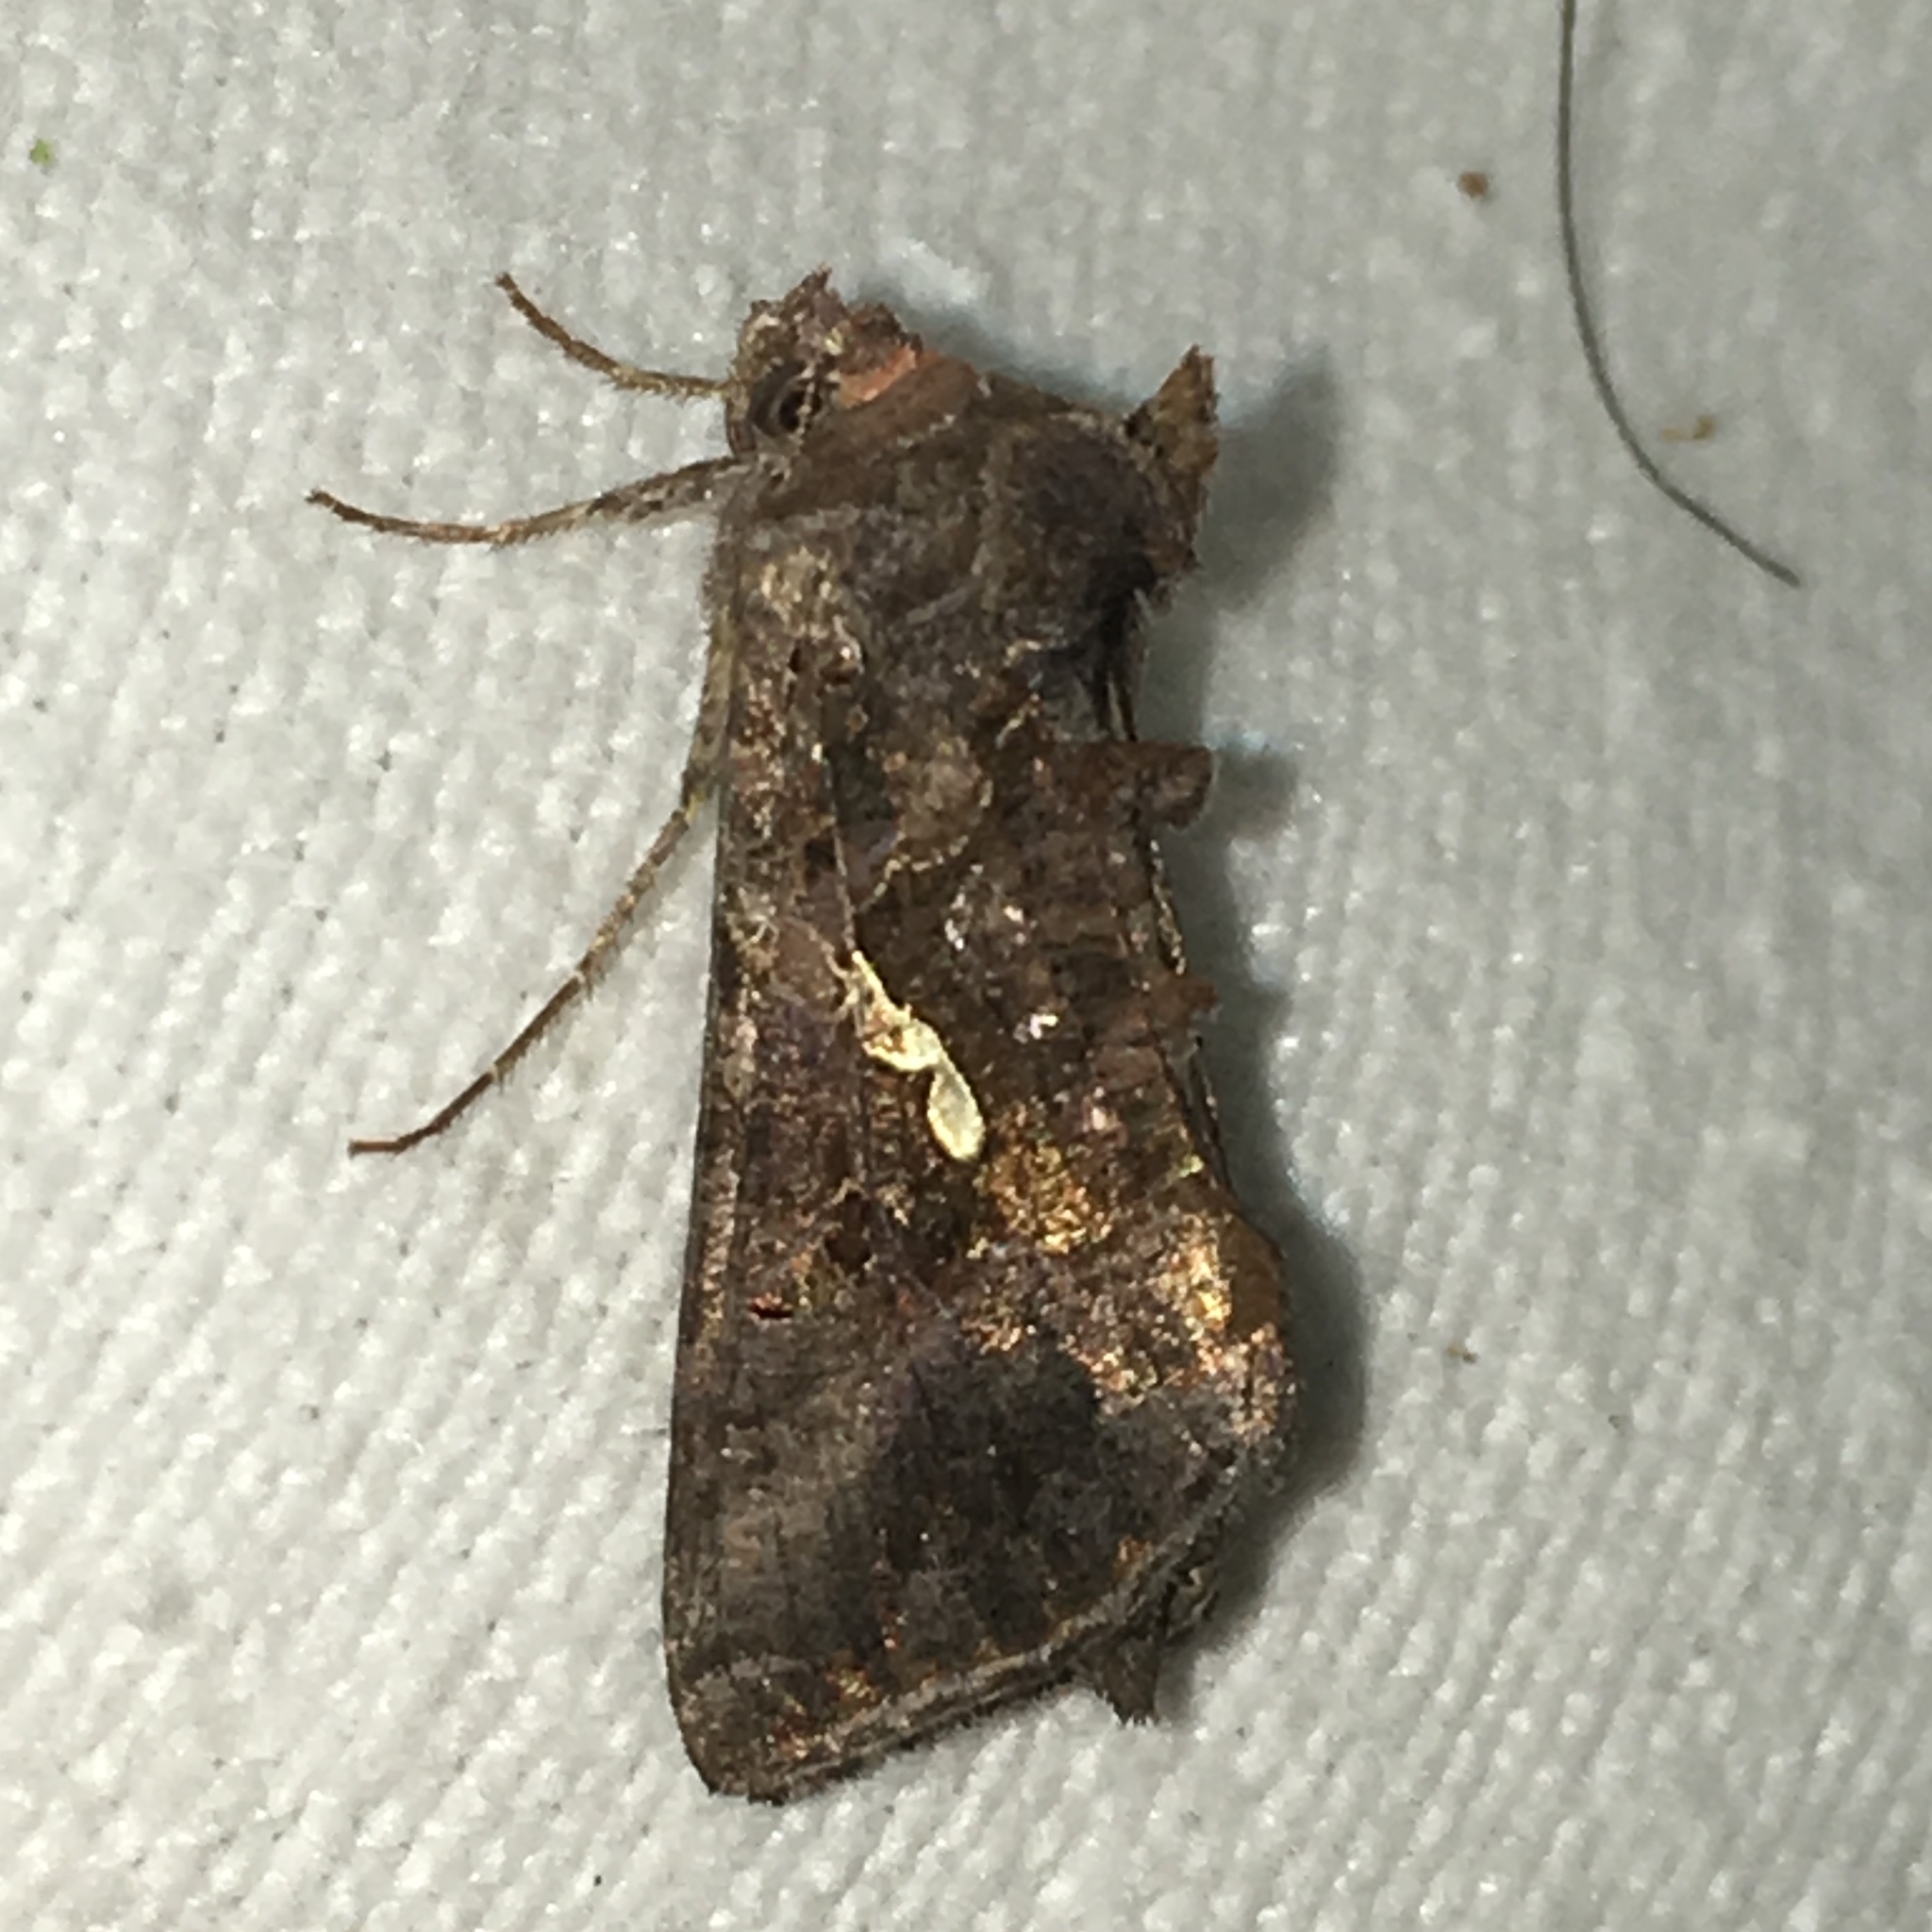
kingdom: Animalia
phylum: Arthropoda
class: Insecta
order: Lepidoptera
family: Noctuidae
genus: Autographa
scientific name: Autographa precationis
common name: Common looper moth
